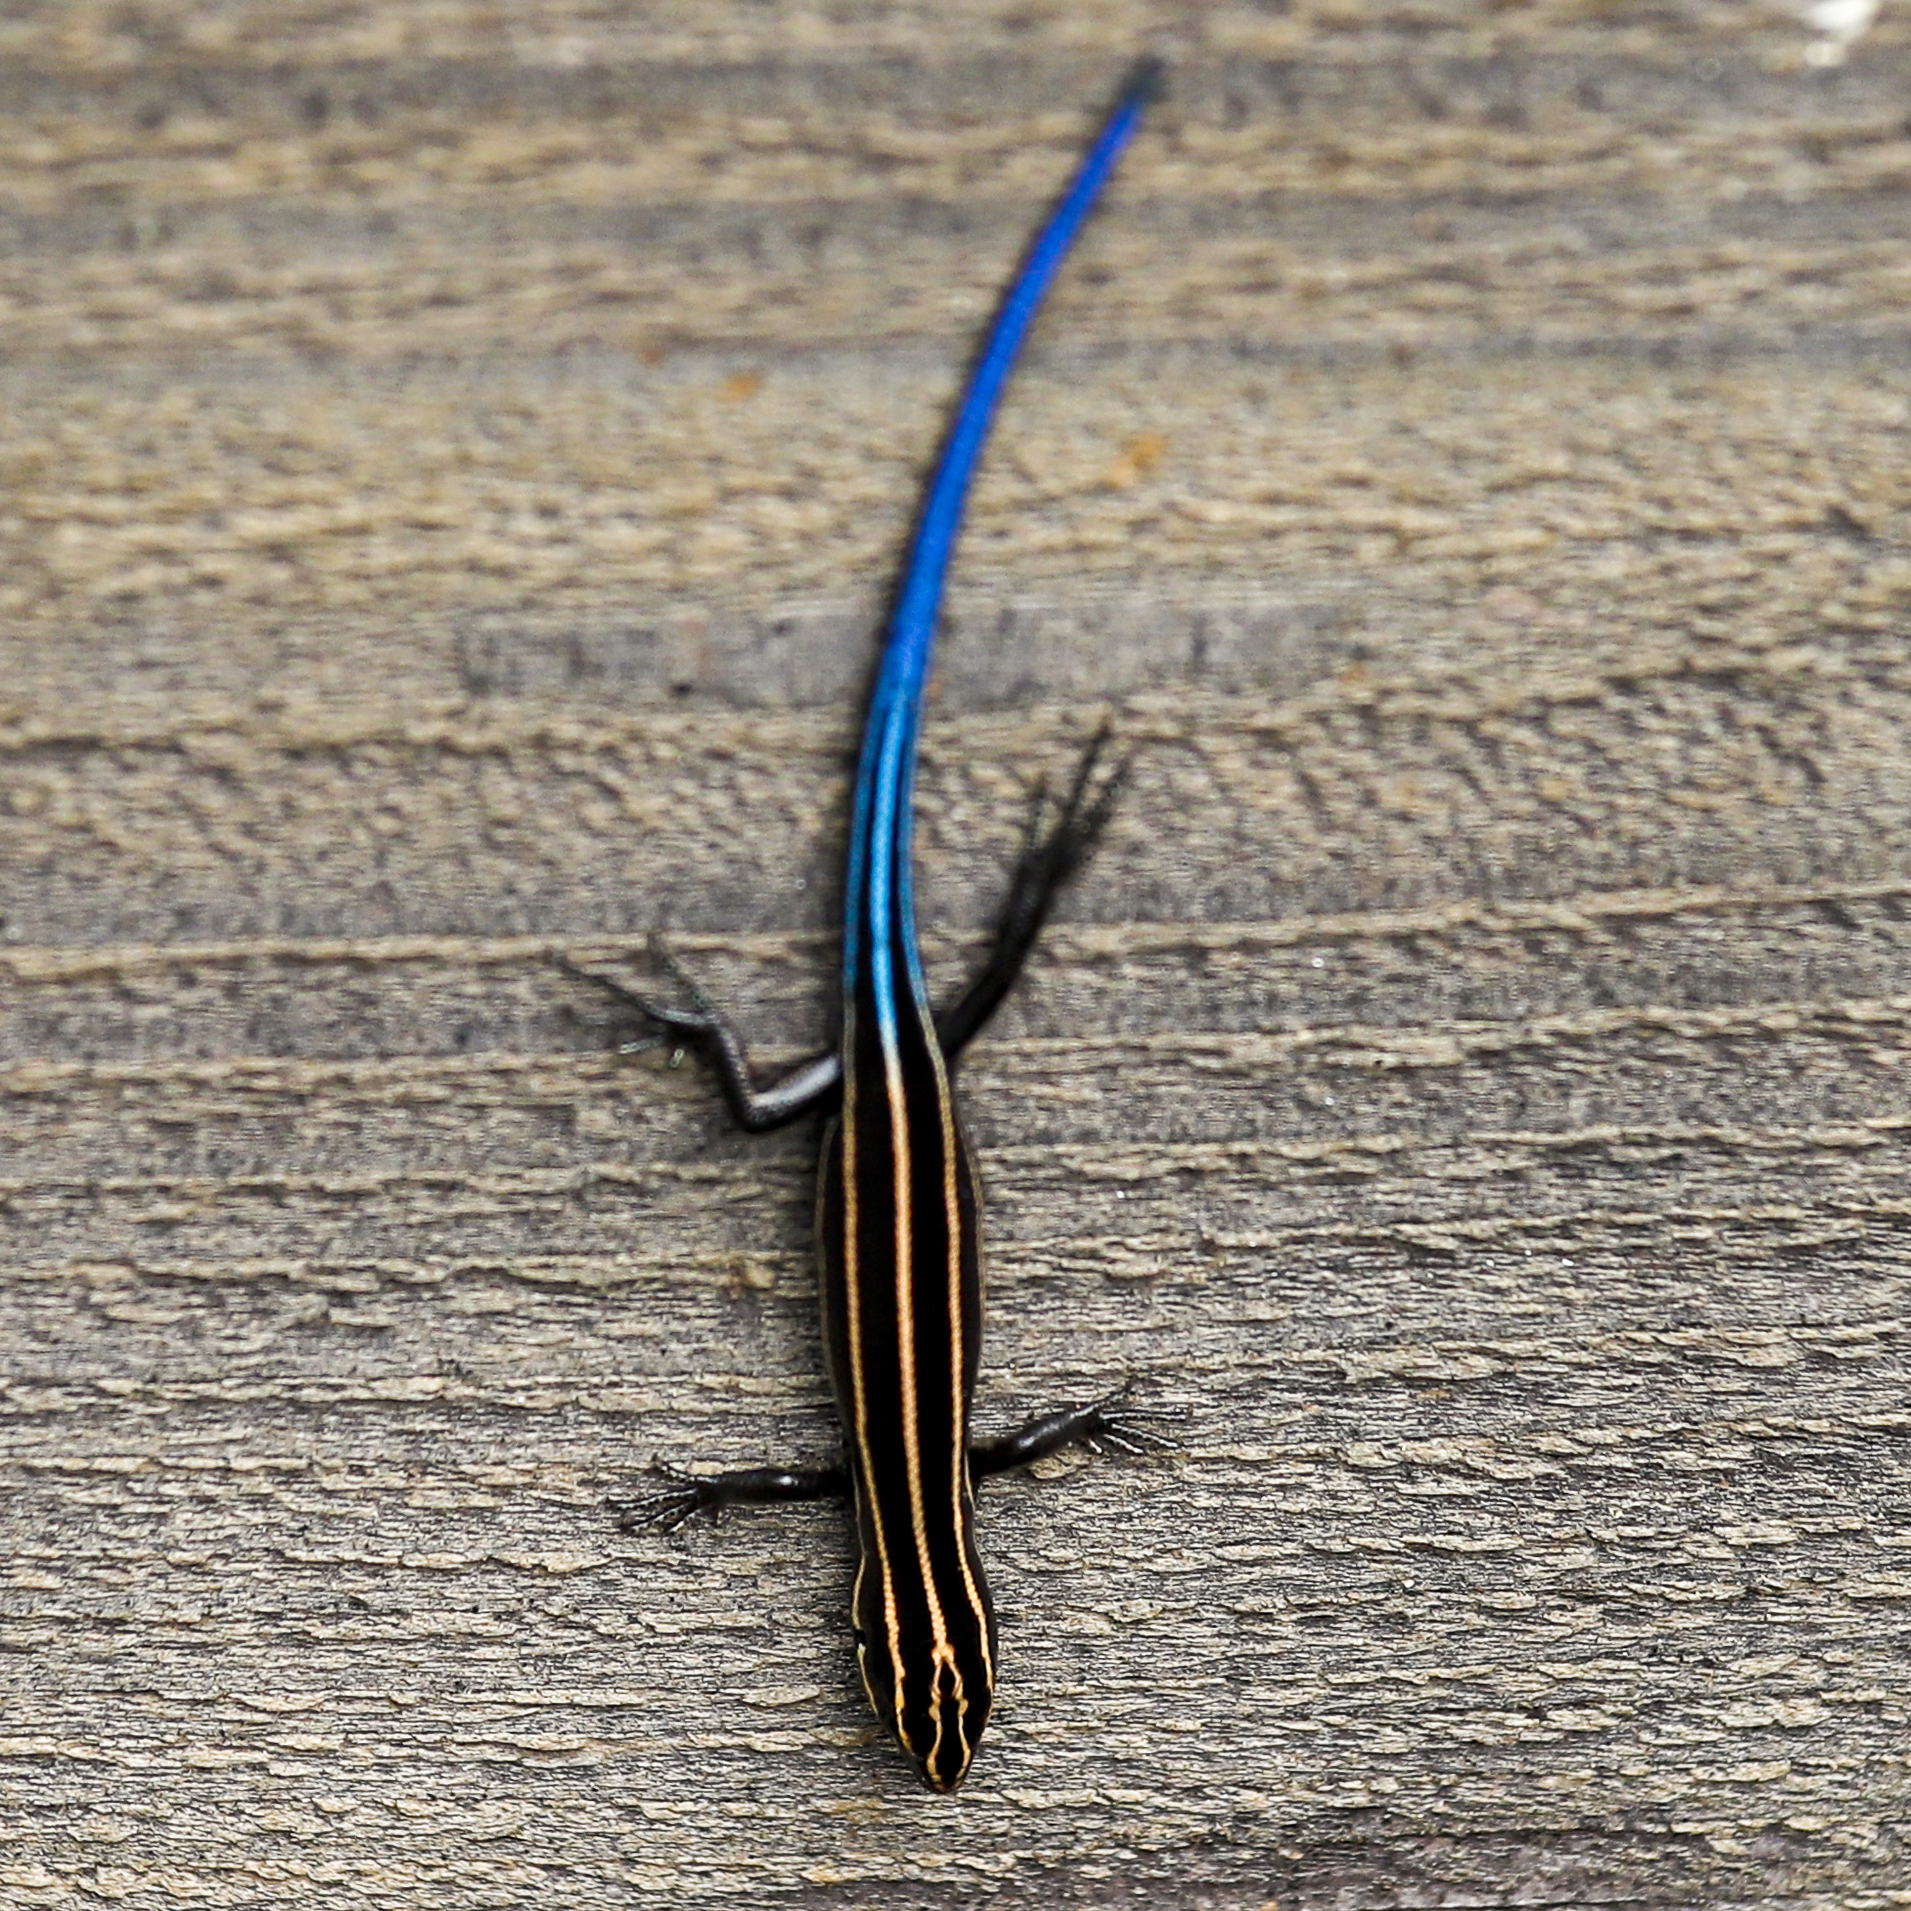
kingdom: Animalia
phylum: Chordata
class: Squamata
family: Scincidae
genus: Plestiodon
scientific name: Plestiodon fasciatus
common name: Five-lined skink
